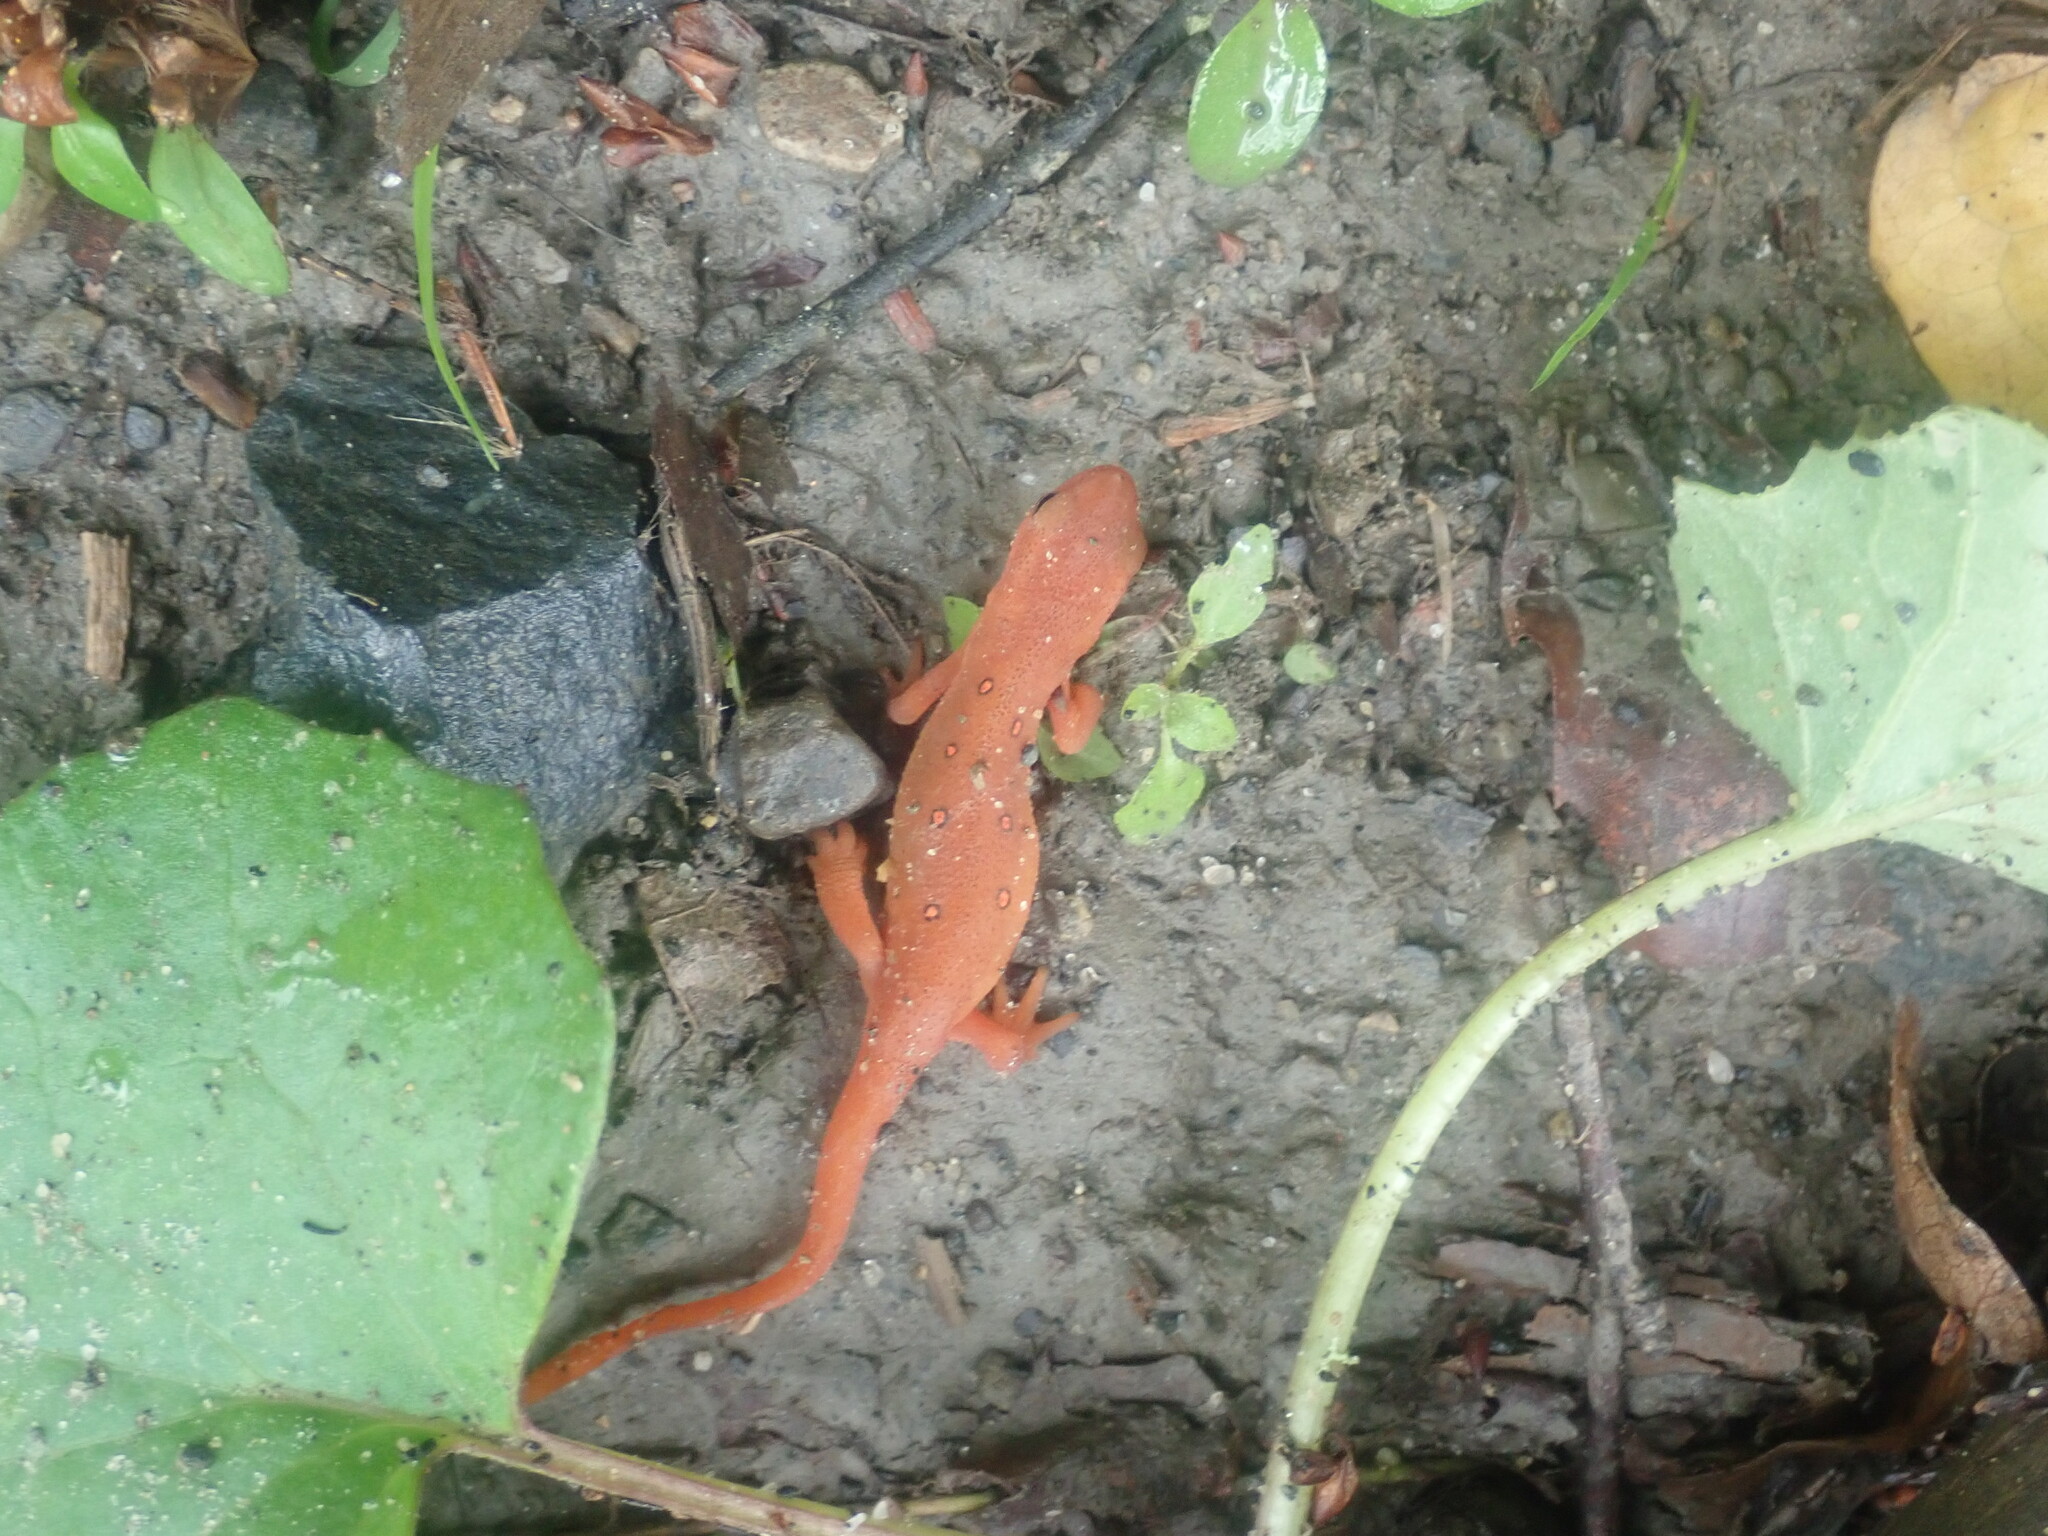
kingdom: Animalia
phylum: Chordata
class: Amphibia
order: Caudata
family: Salamandridae
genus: Notophthalmus
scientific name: Notophthalmus viridescens
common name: Eastern newt
